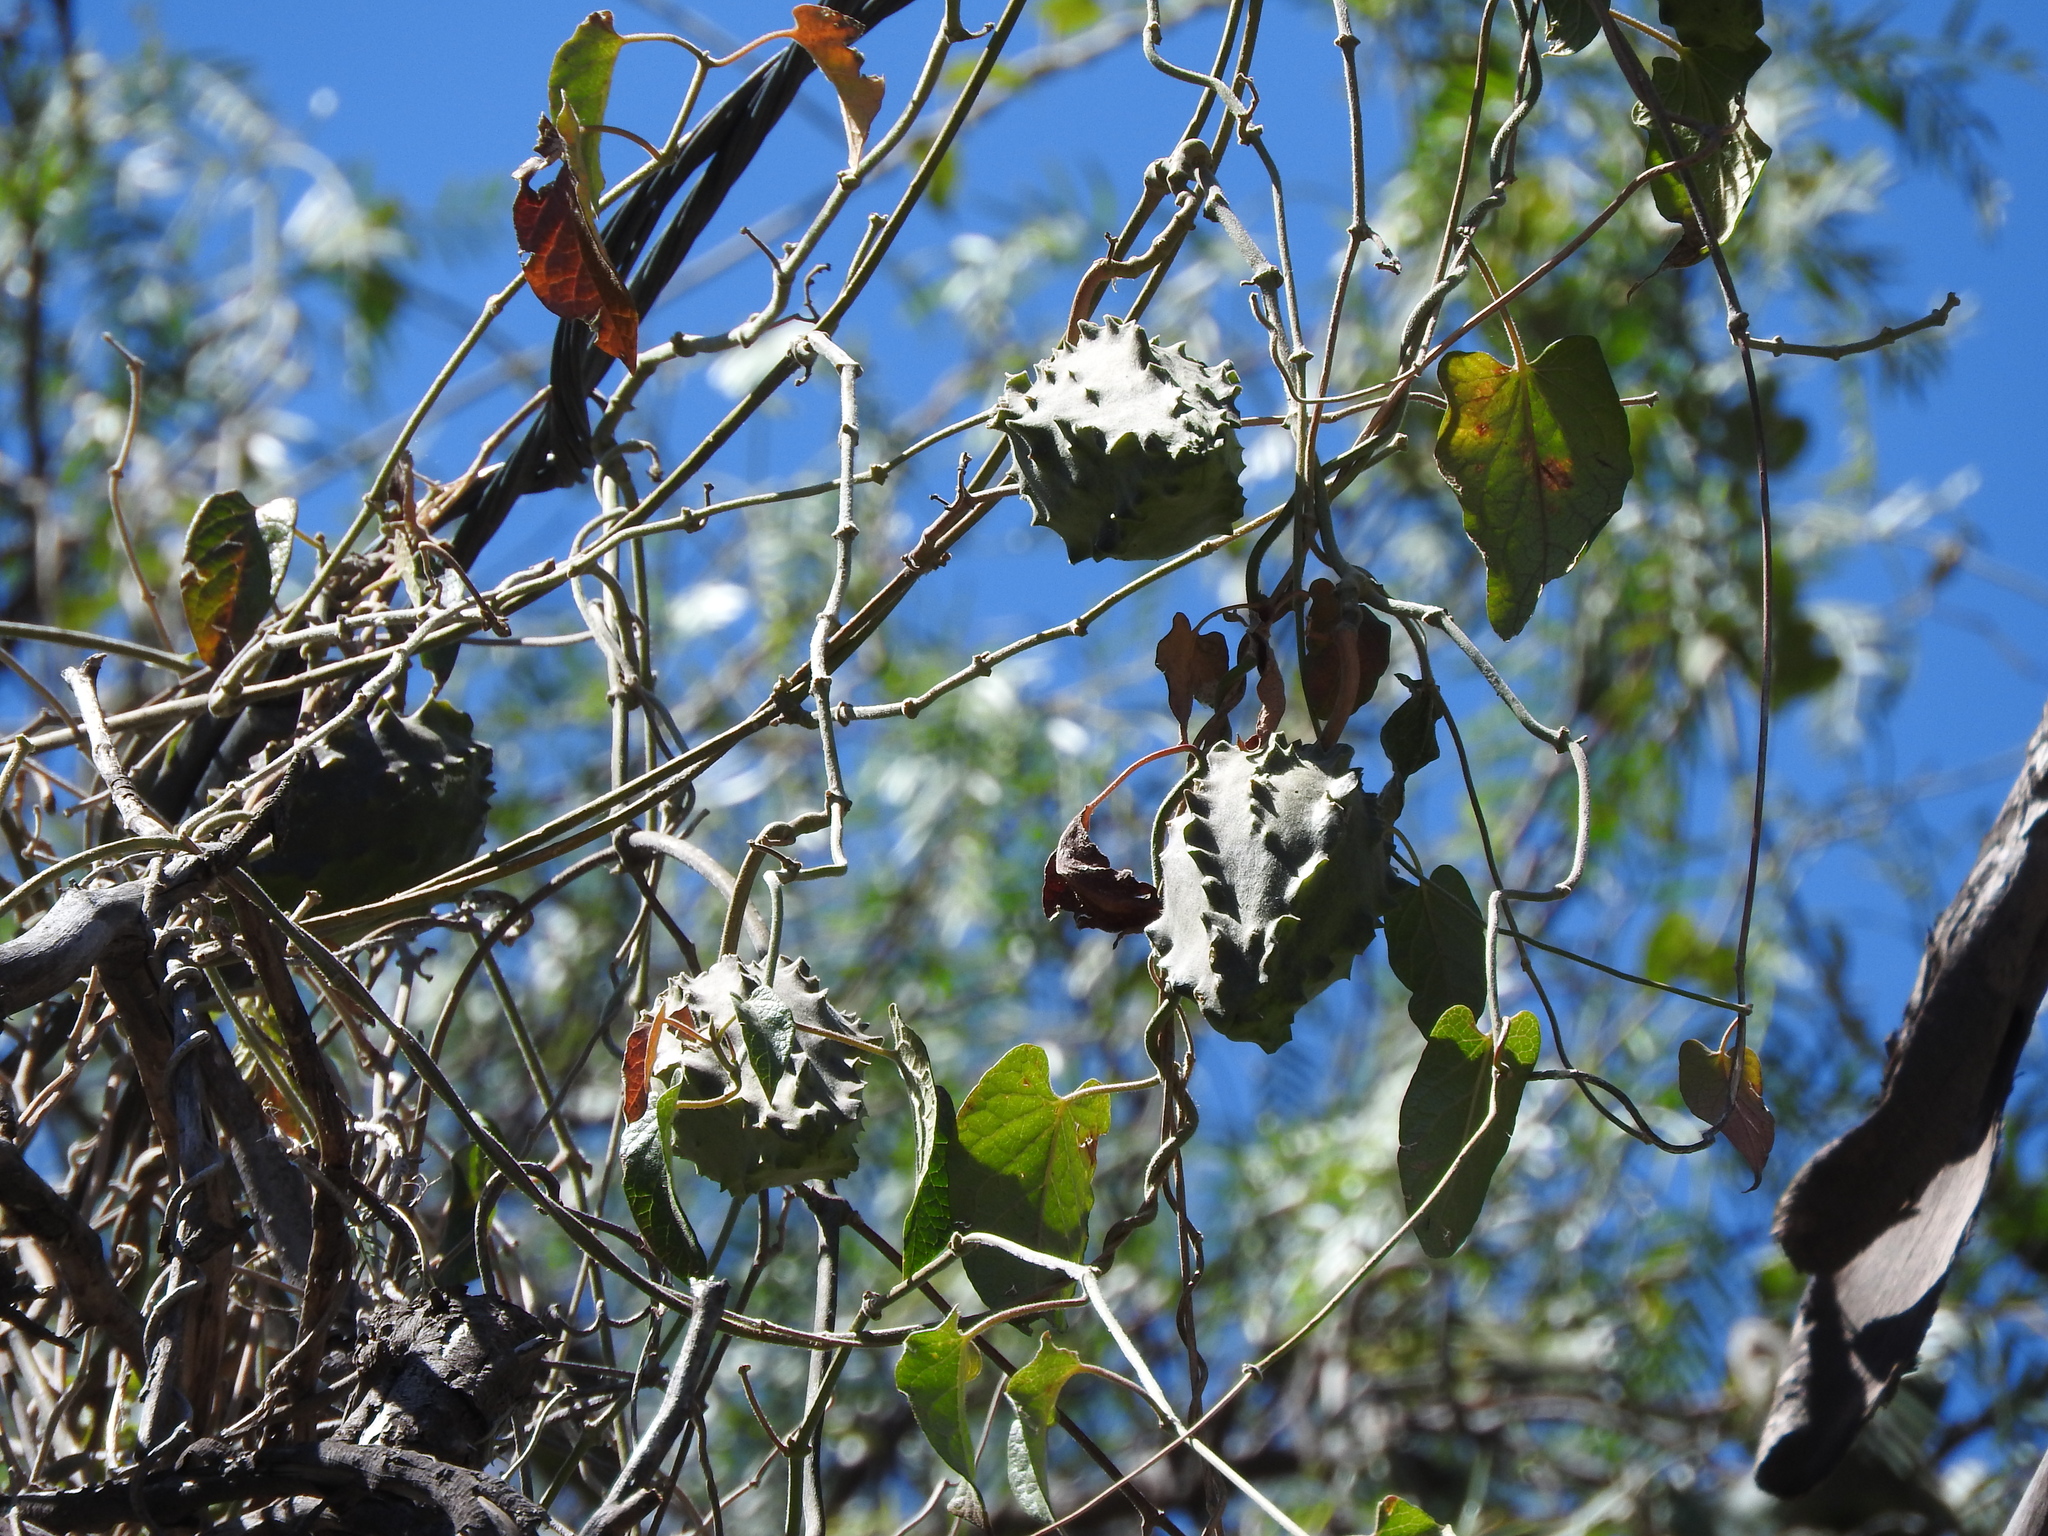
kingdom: Plantae
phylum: Tracheophyta
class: Magnoliopsida
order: Gentianales
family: Apocynaceae
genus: Gonolobus
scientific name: Gonolobus grandiflorus
